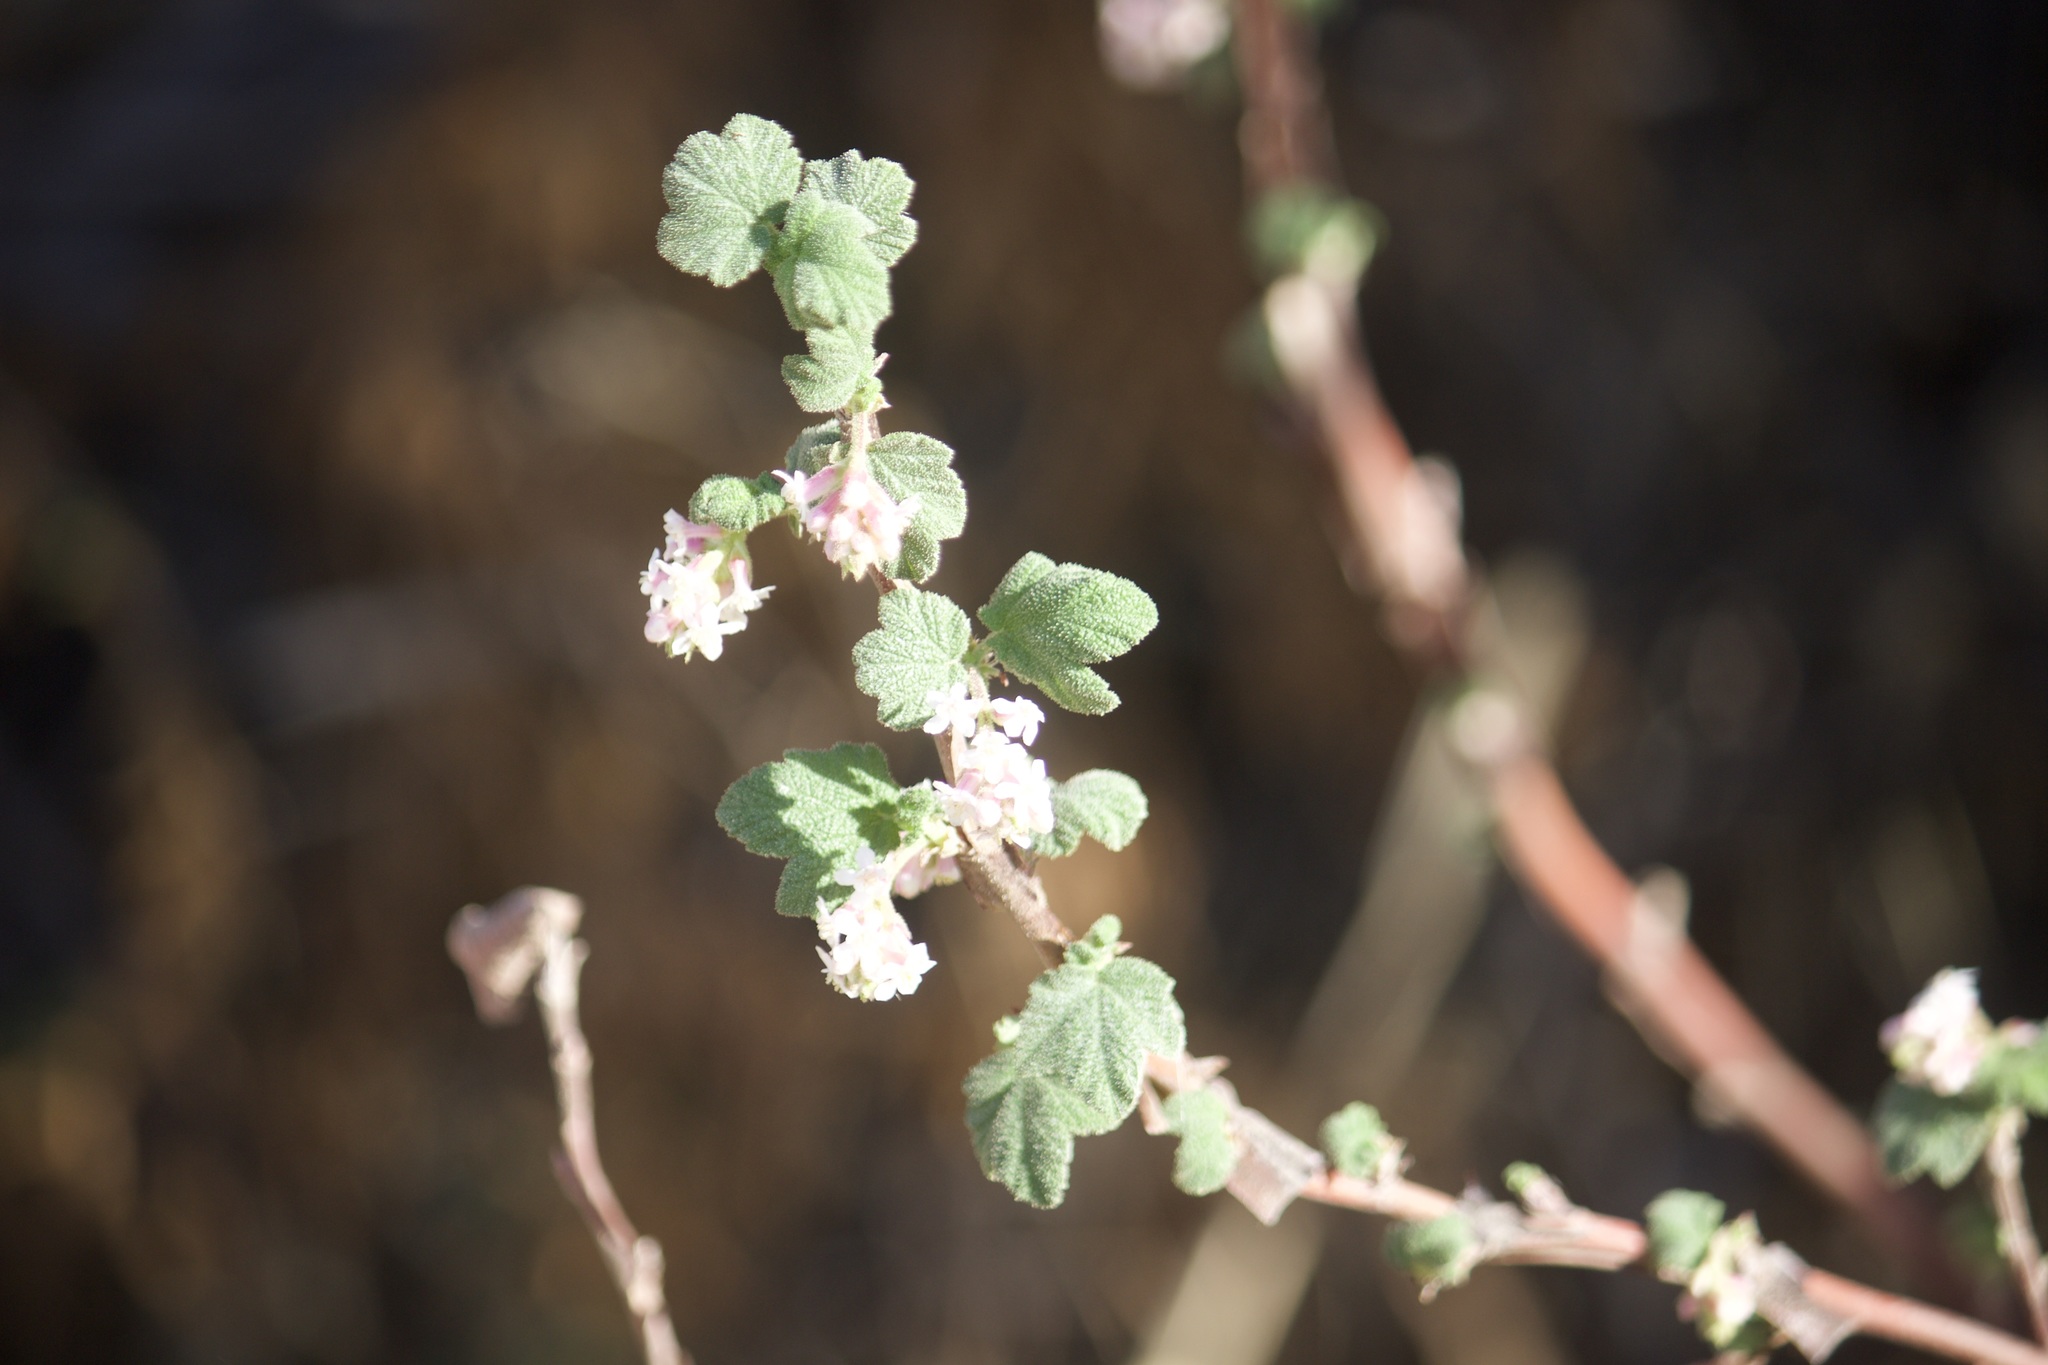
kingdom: Plantae
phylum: Tracheophyta
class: Magnoliopsida
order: Saxifragales
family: Grossulariaceae
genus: Ribes
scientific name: Ribes malvaceum
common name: Chaparral currant
